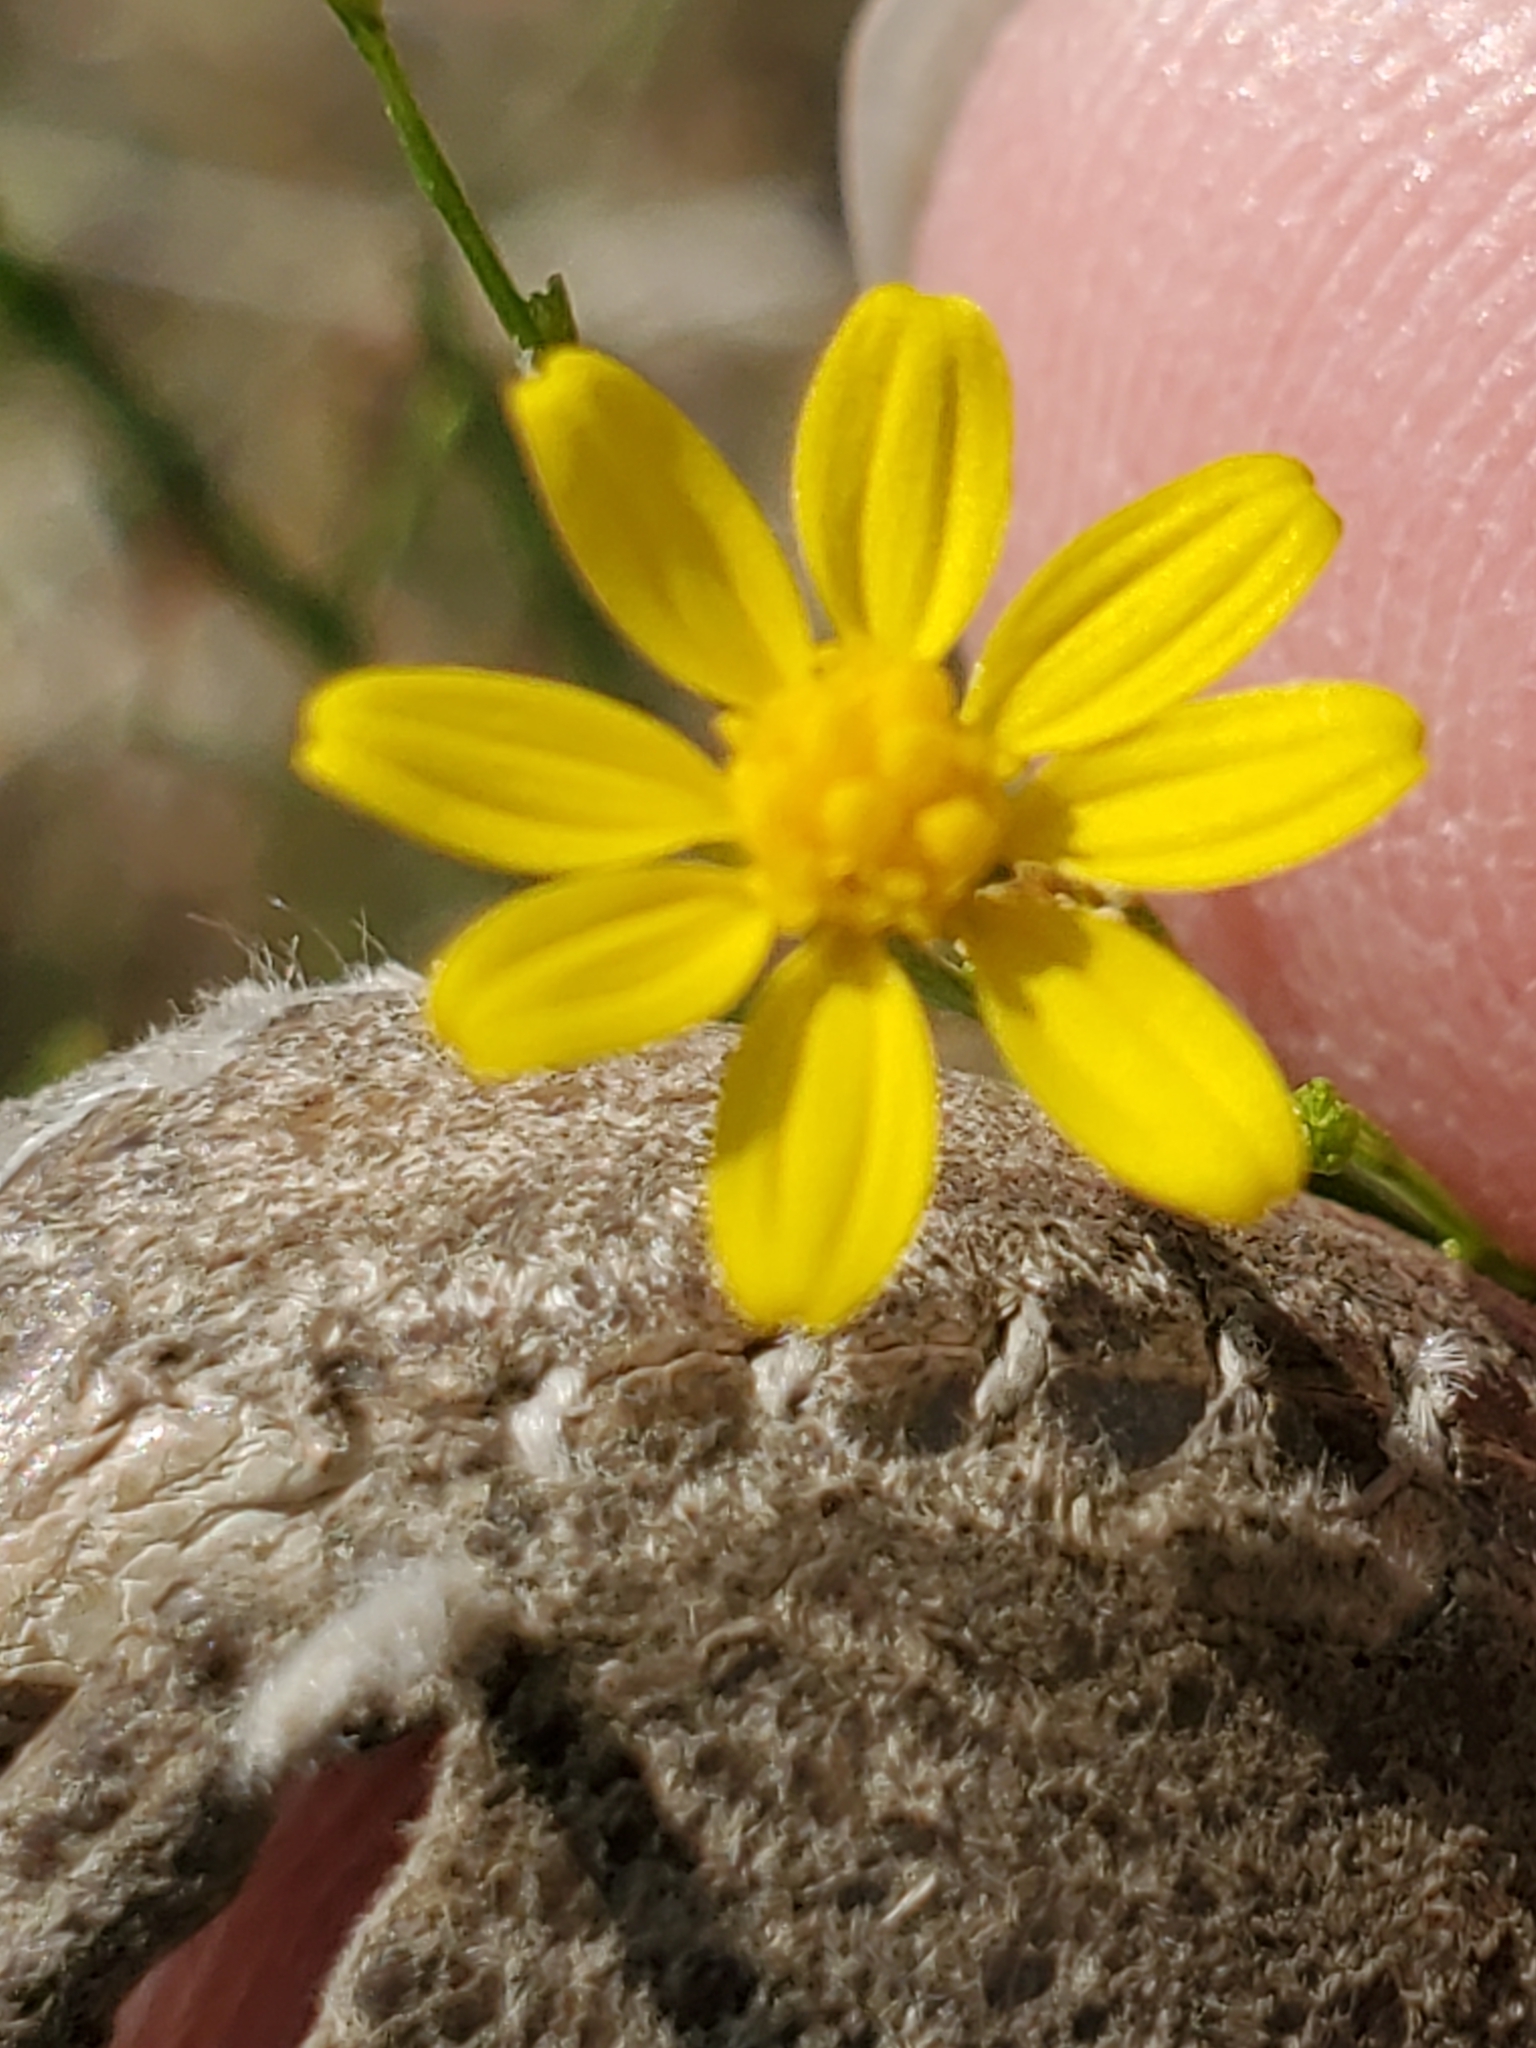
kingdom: Plantae
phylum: Tracheophyta
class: Magnoliopsida
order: Asterales
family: Asteraceae
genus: Gutierrezia
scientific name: Gutierrezia texana
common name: Texas snakeweed
